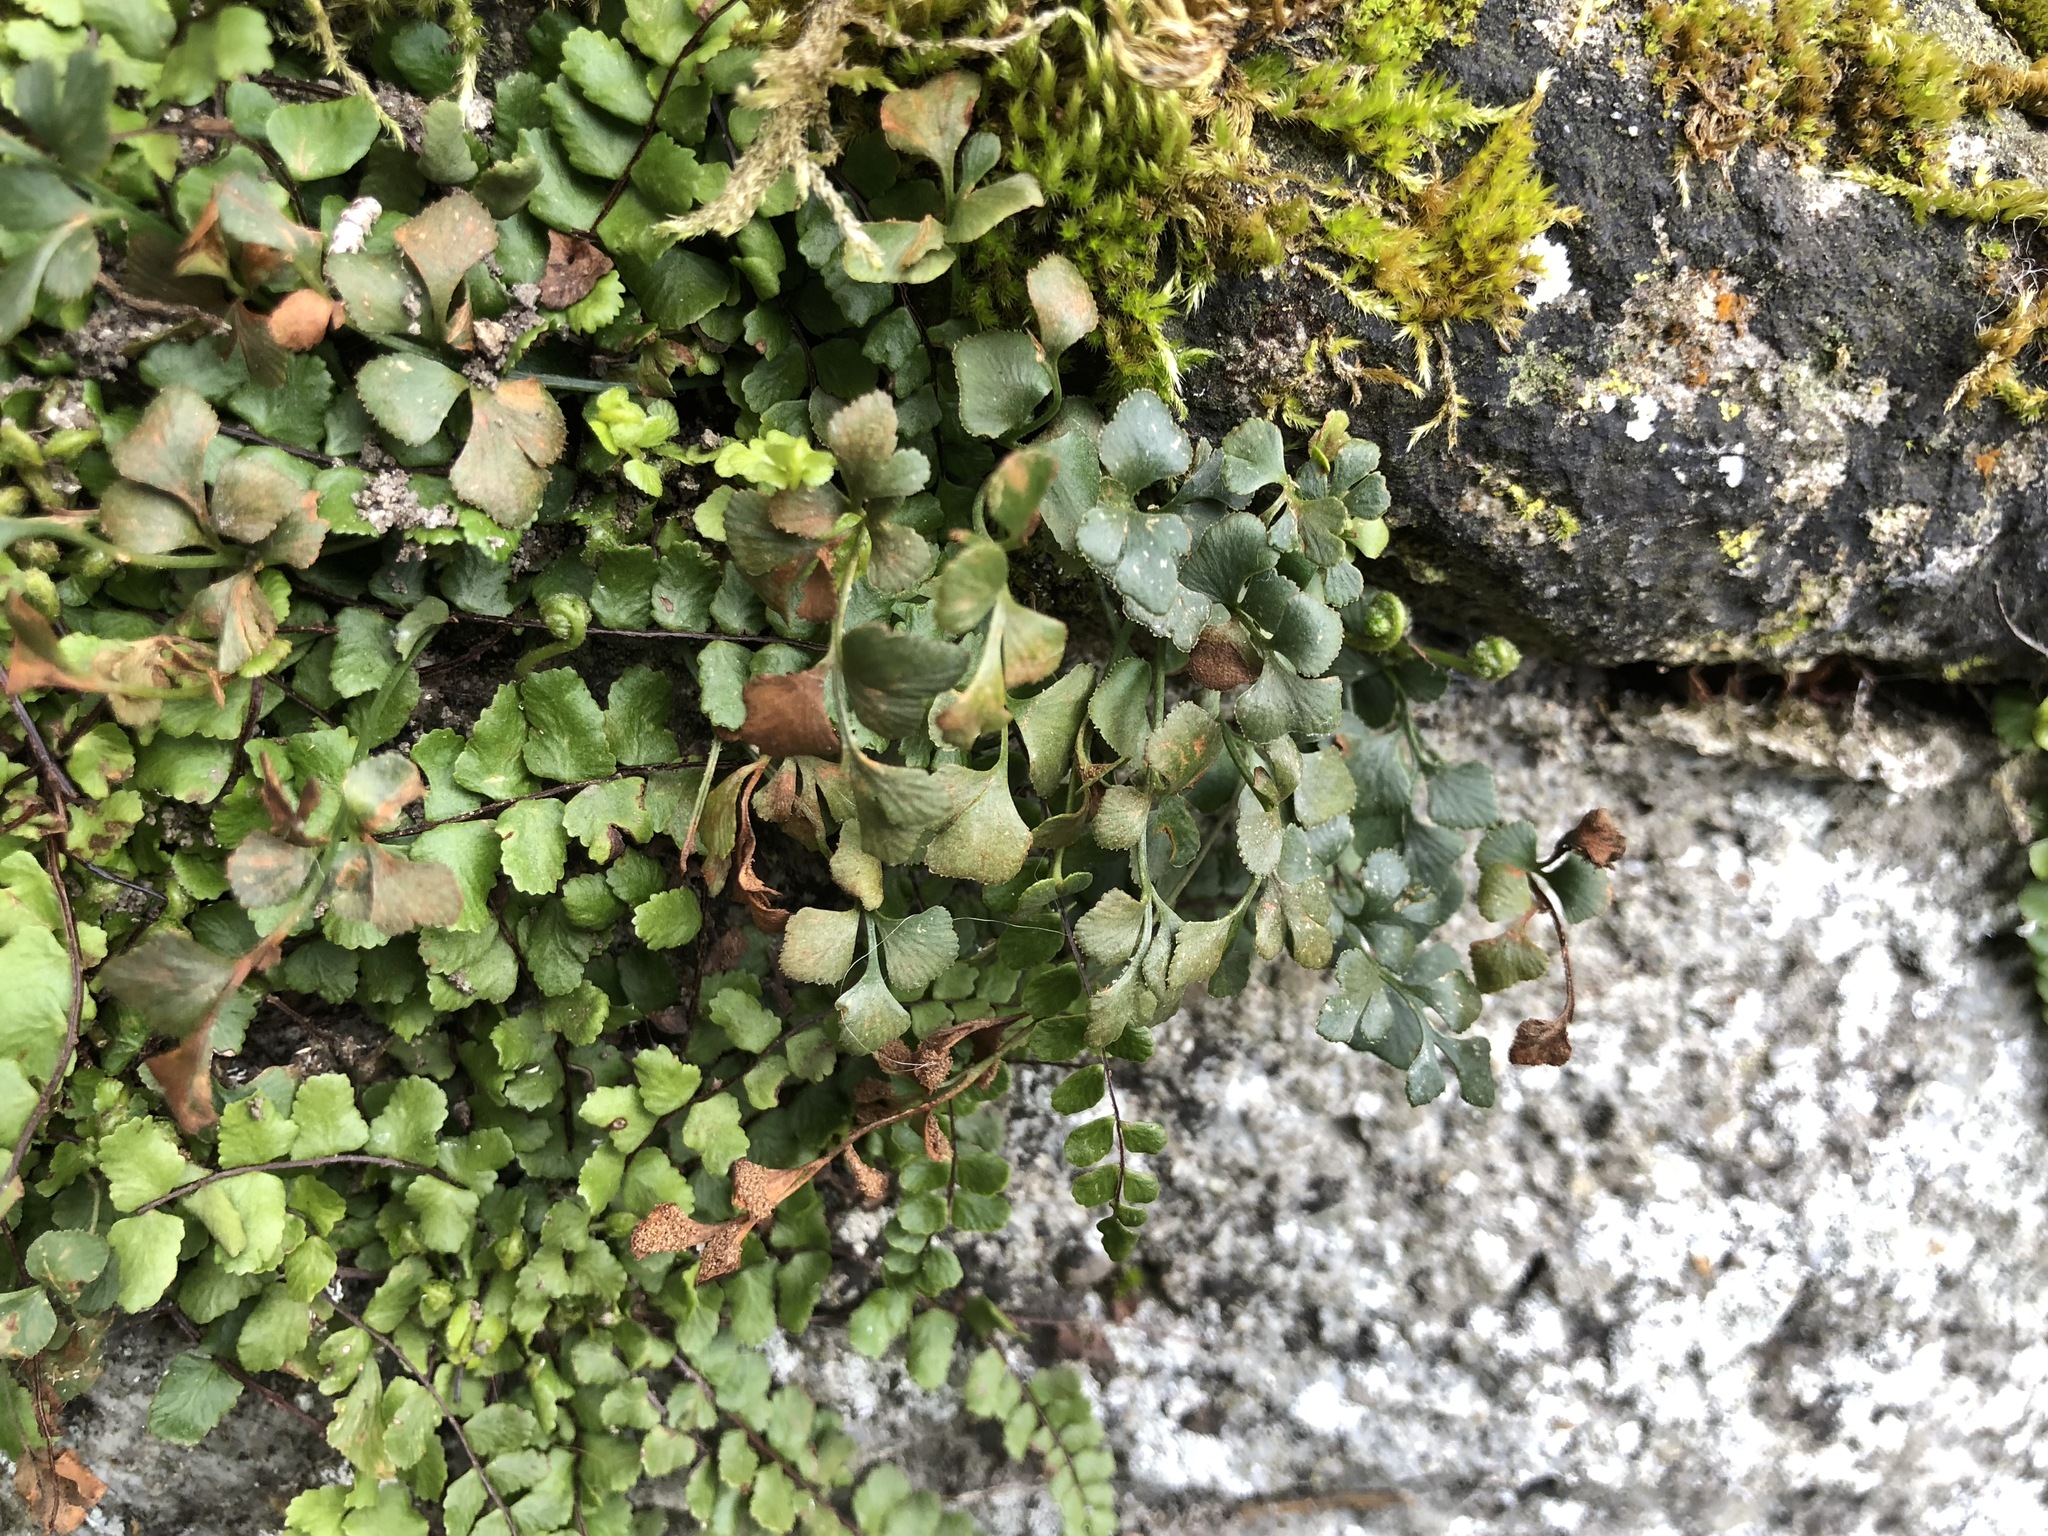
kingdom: Plantae
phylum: Tracheophyta
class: Polypodiopsida
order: Polypodiales
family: Aspleniaceae
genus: Asplenium
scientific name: Asplenium ruta-muraria
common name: Wall-rue
